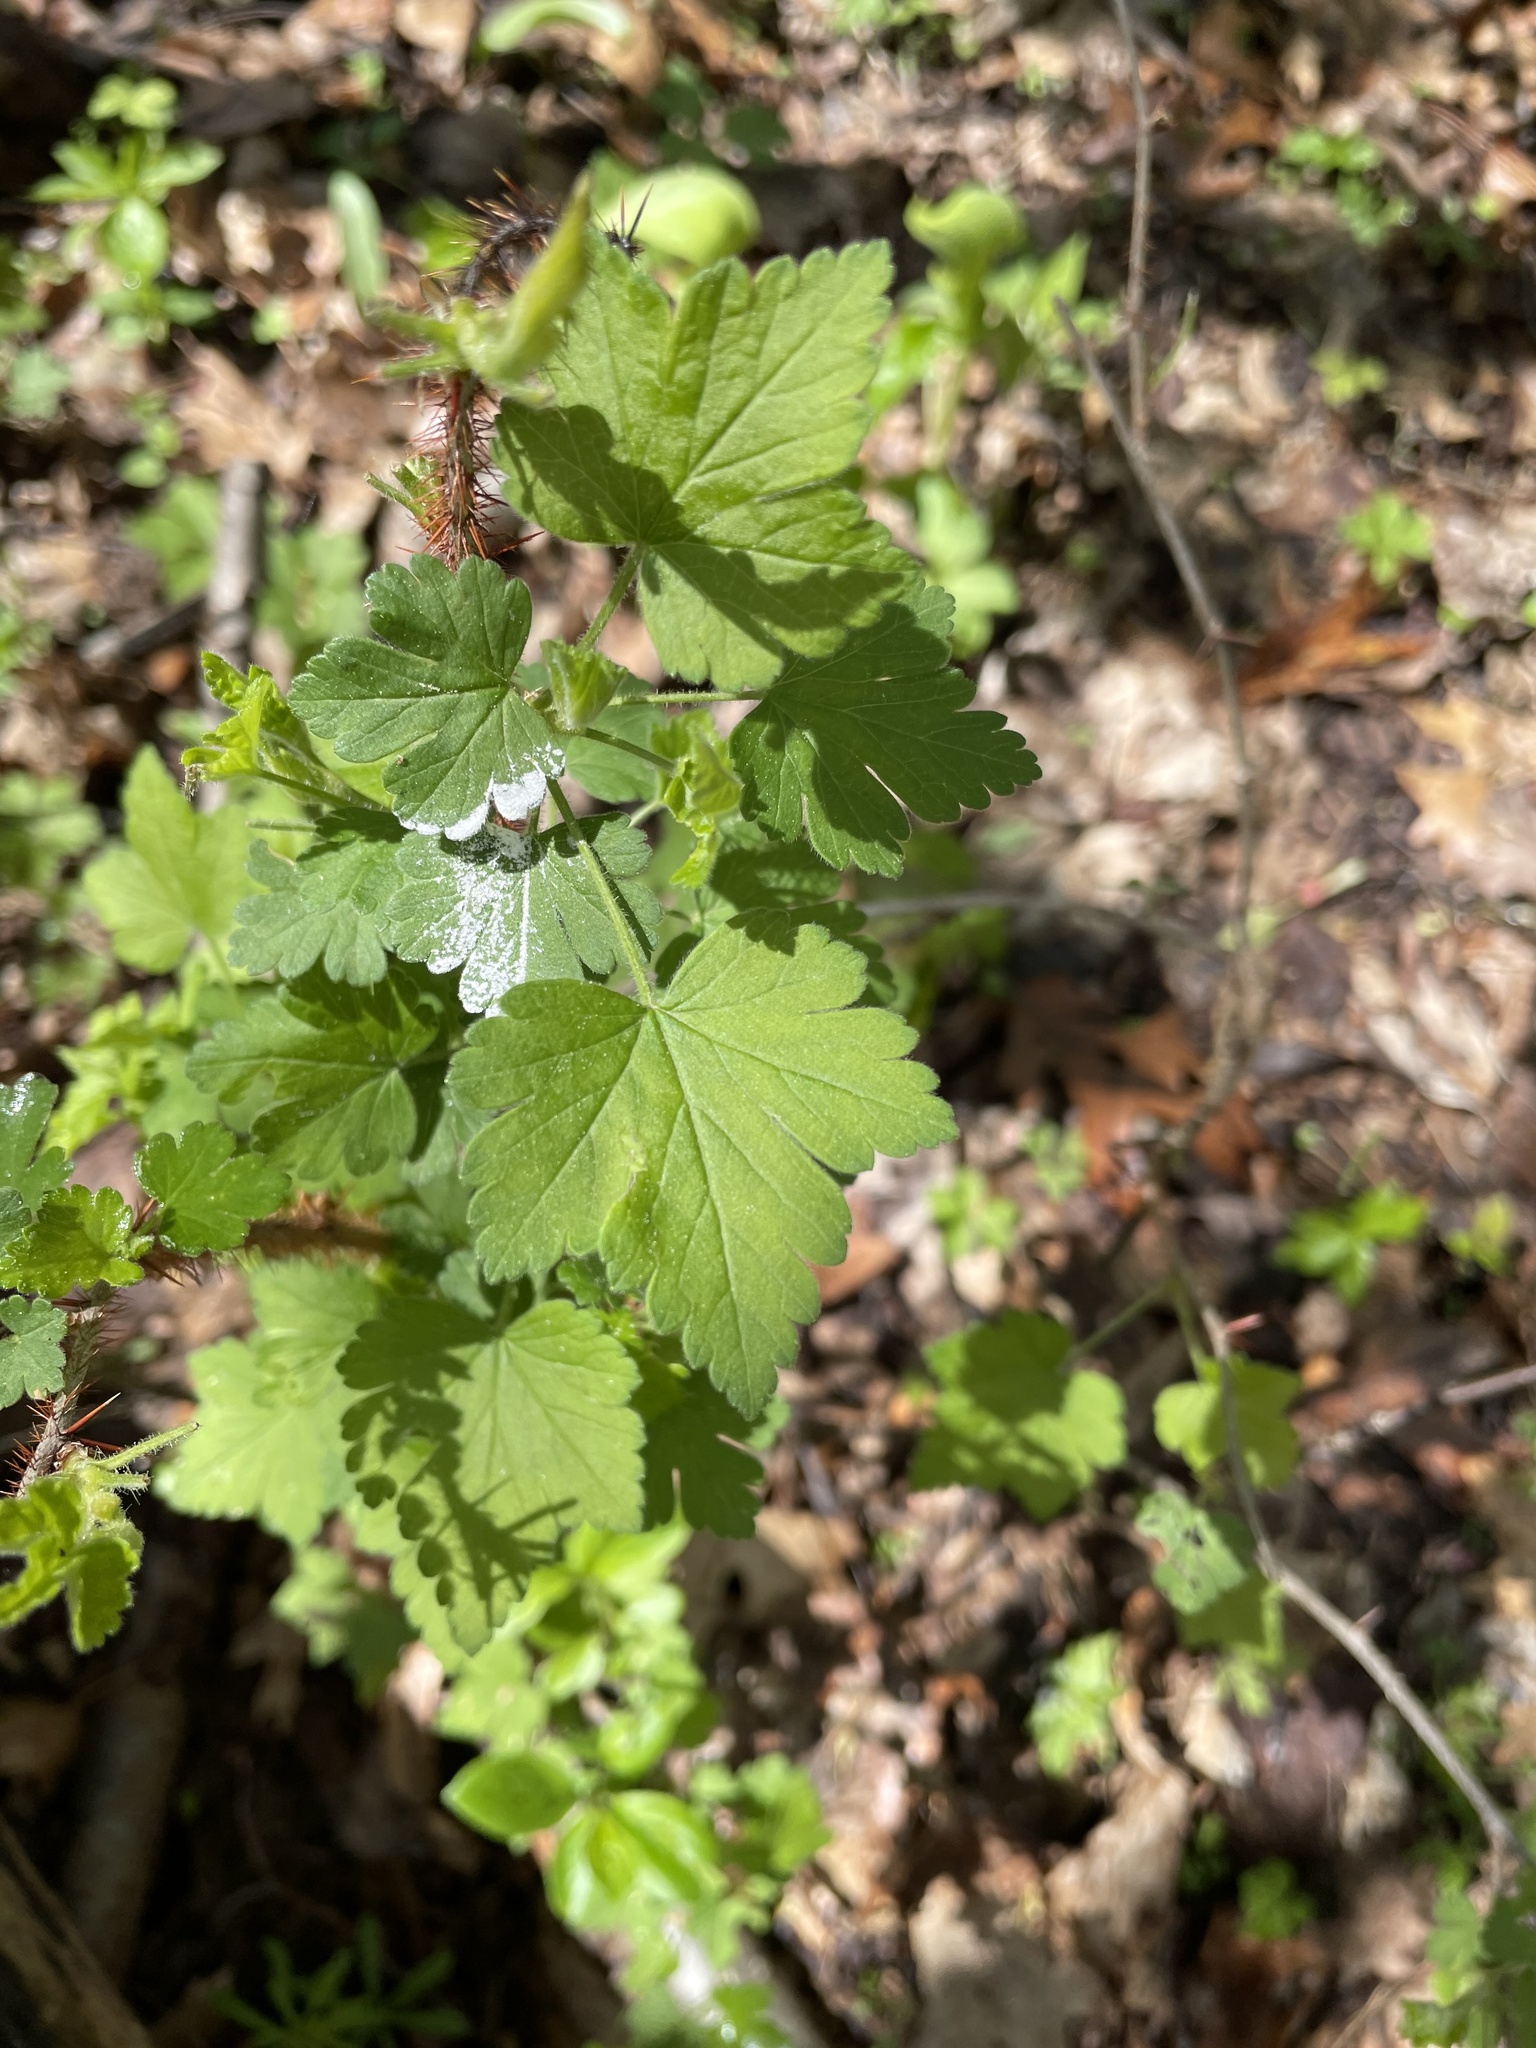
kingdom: Plantae
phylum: Tracheophyta
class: Magnoliopsida
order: Saxifragales
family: Grossulariaceae
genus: Ribes
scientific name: Ribes cynosbati
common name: American gooseberry
